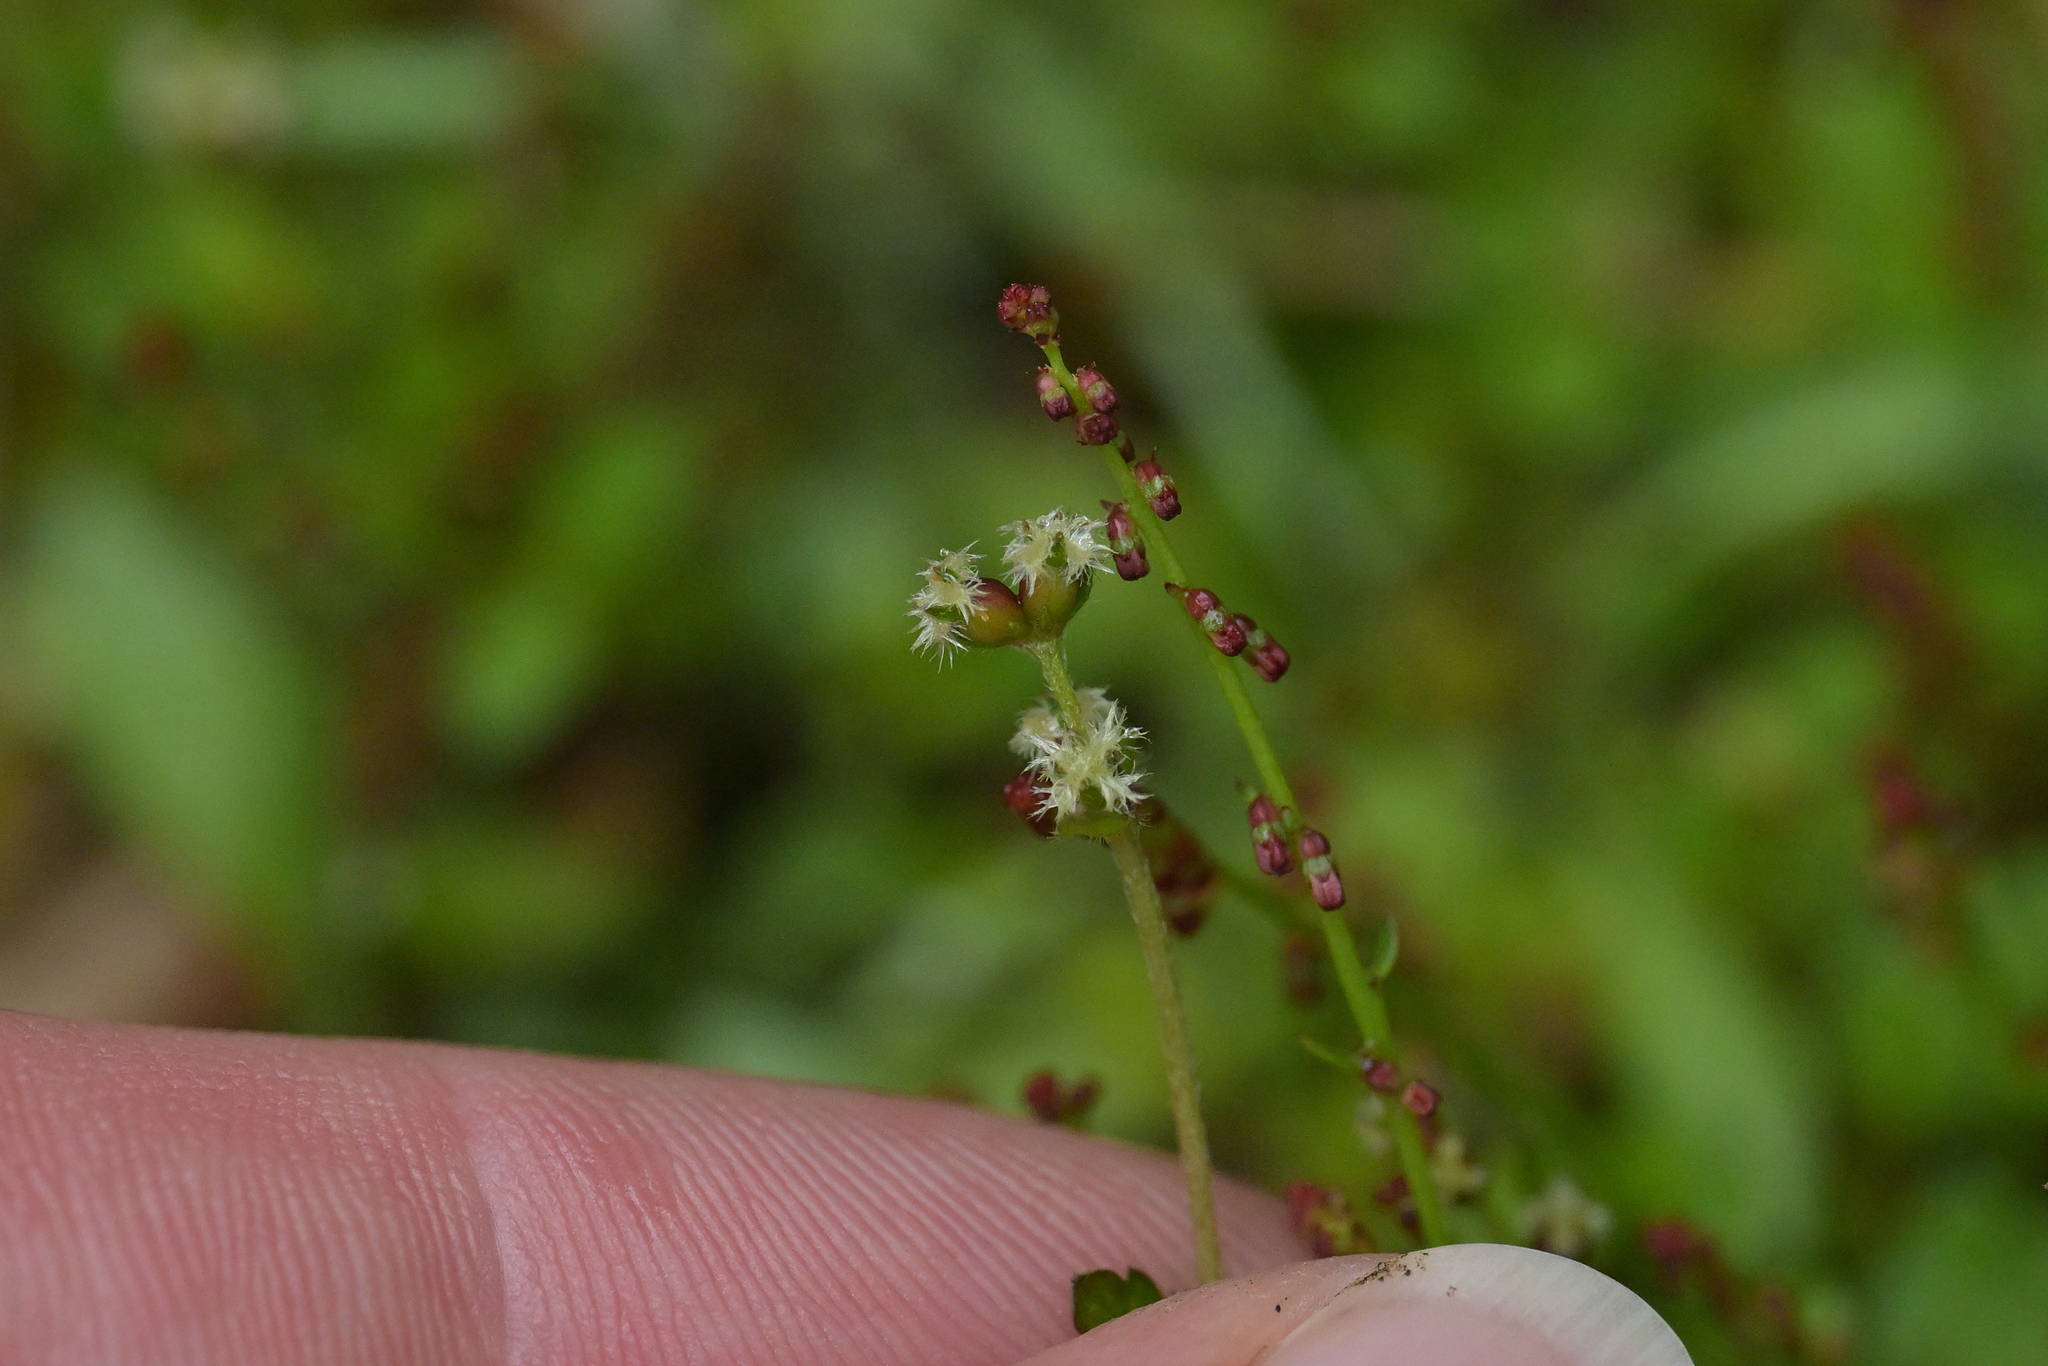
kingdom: Plantae
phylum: Tracheophyta
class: Magnoliopsida
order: Saxifragales
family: Haloragaceae
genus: Gonocarpus
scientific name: Gonocarpus aggregatus
